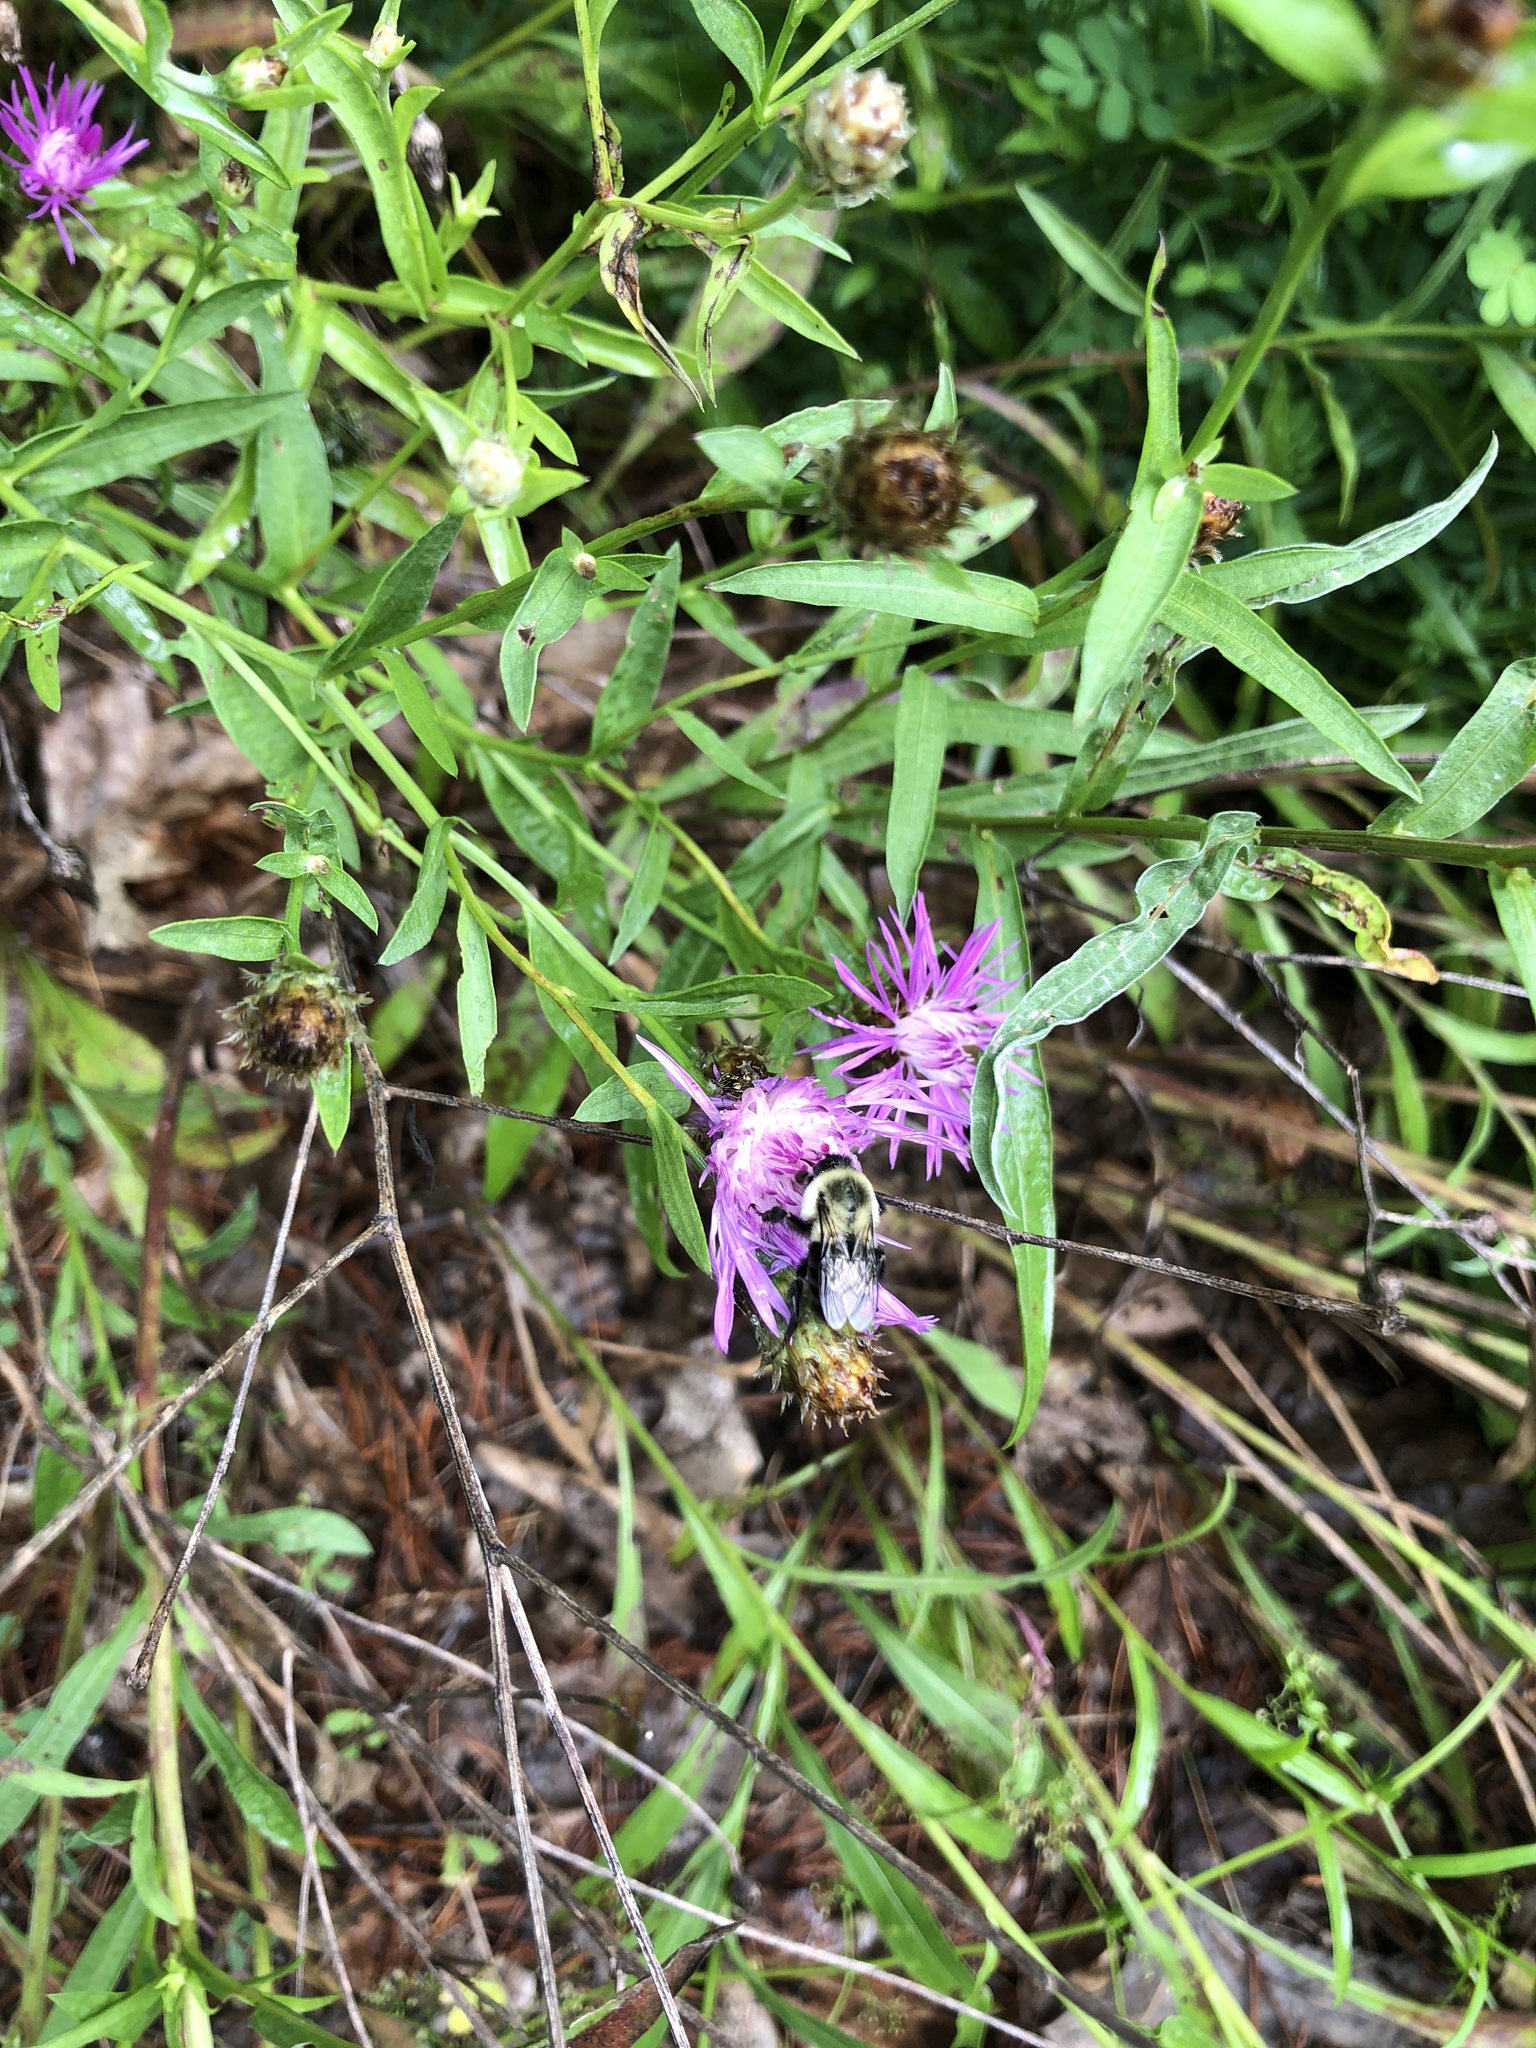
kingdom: Animalia
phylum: Arthropoda
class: Insecta
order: Hymenoptera
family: Apidae
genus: Bombus
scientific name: Bombus impatiens
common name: Common eastern bumble bee
